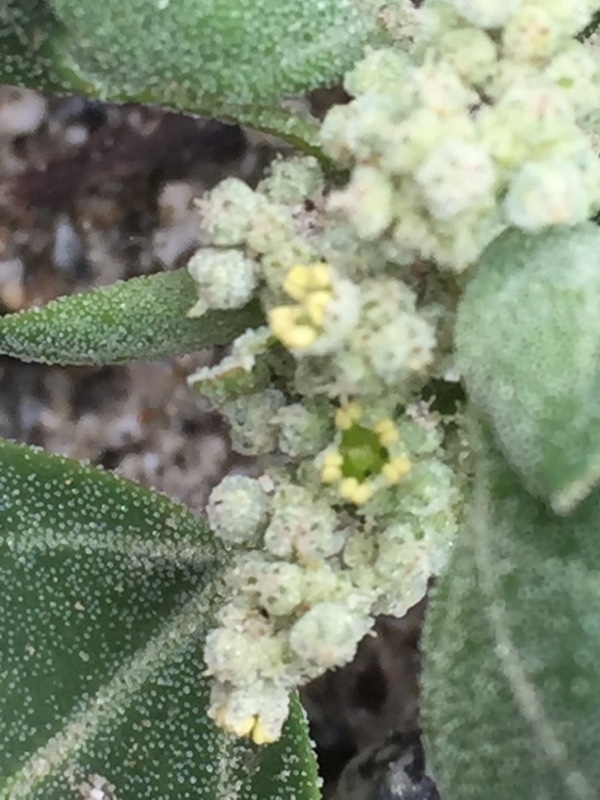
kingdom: Plantae
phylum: Tracheophyta
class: Magnoliopsida
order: Caryophyllales
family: Amaranthaceae
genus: Chenopodium
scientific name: Chenopodium vulvaria
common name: Stinking goosefoot
